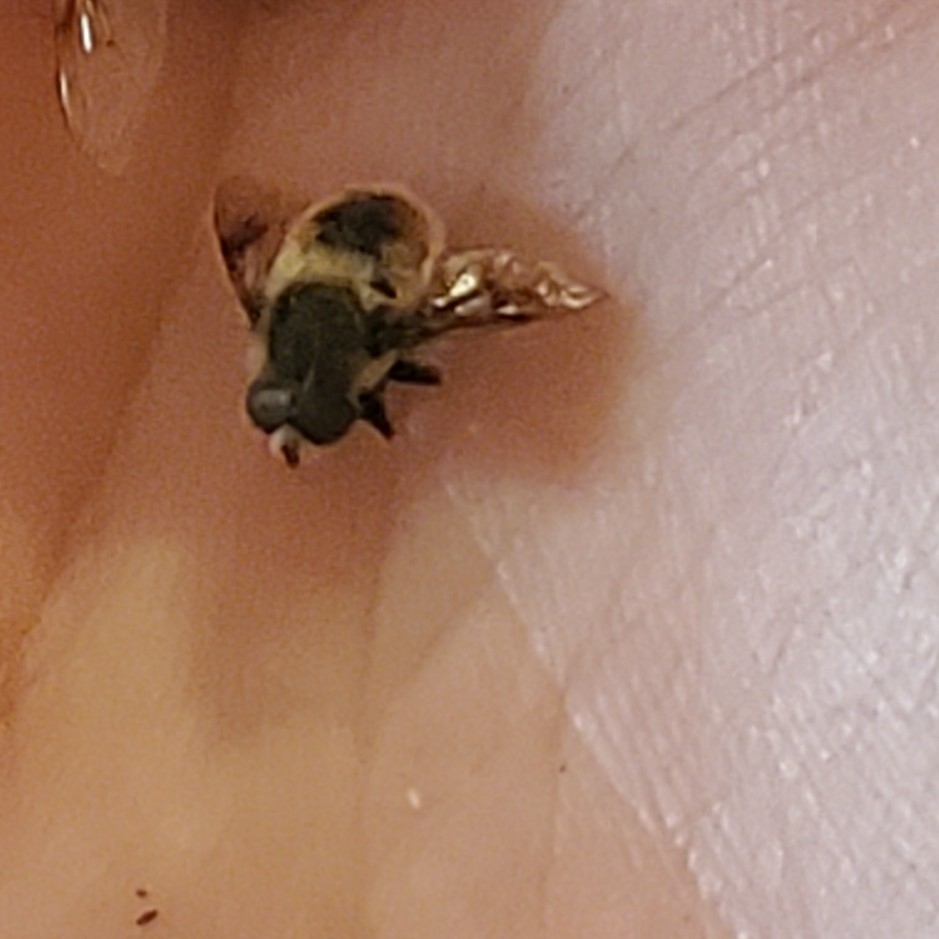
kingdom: Animalia
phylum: Arthropoda
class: Insecta
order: Diptera
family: Syrphidae
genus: Eristalis
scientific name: Eristalis anthophorina
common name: Orange-spotted drone fly
